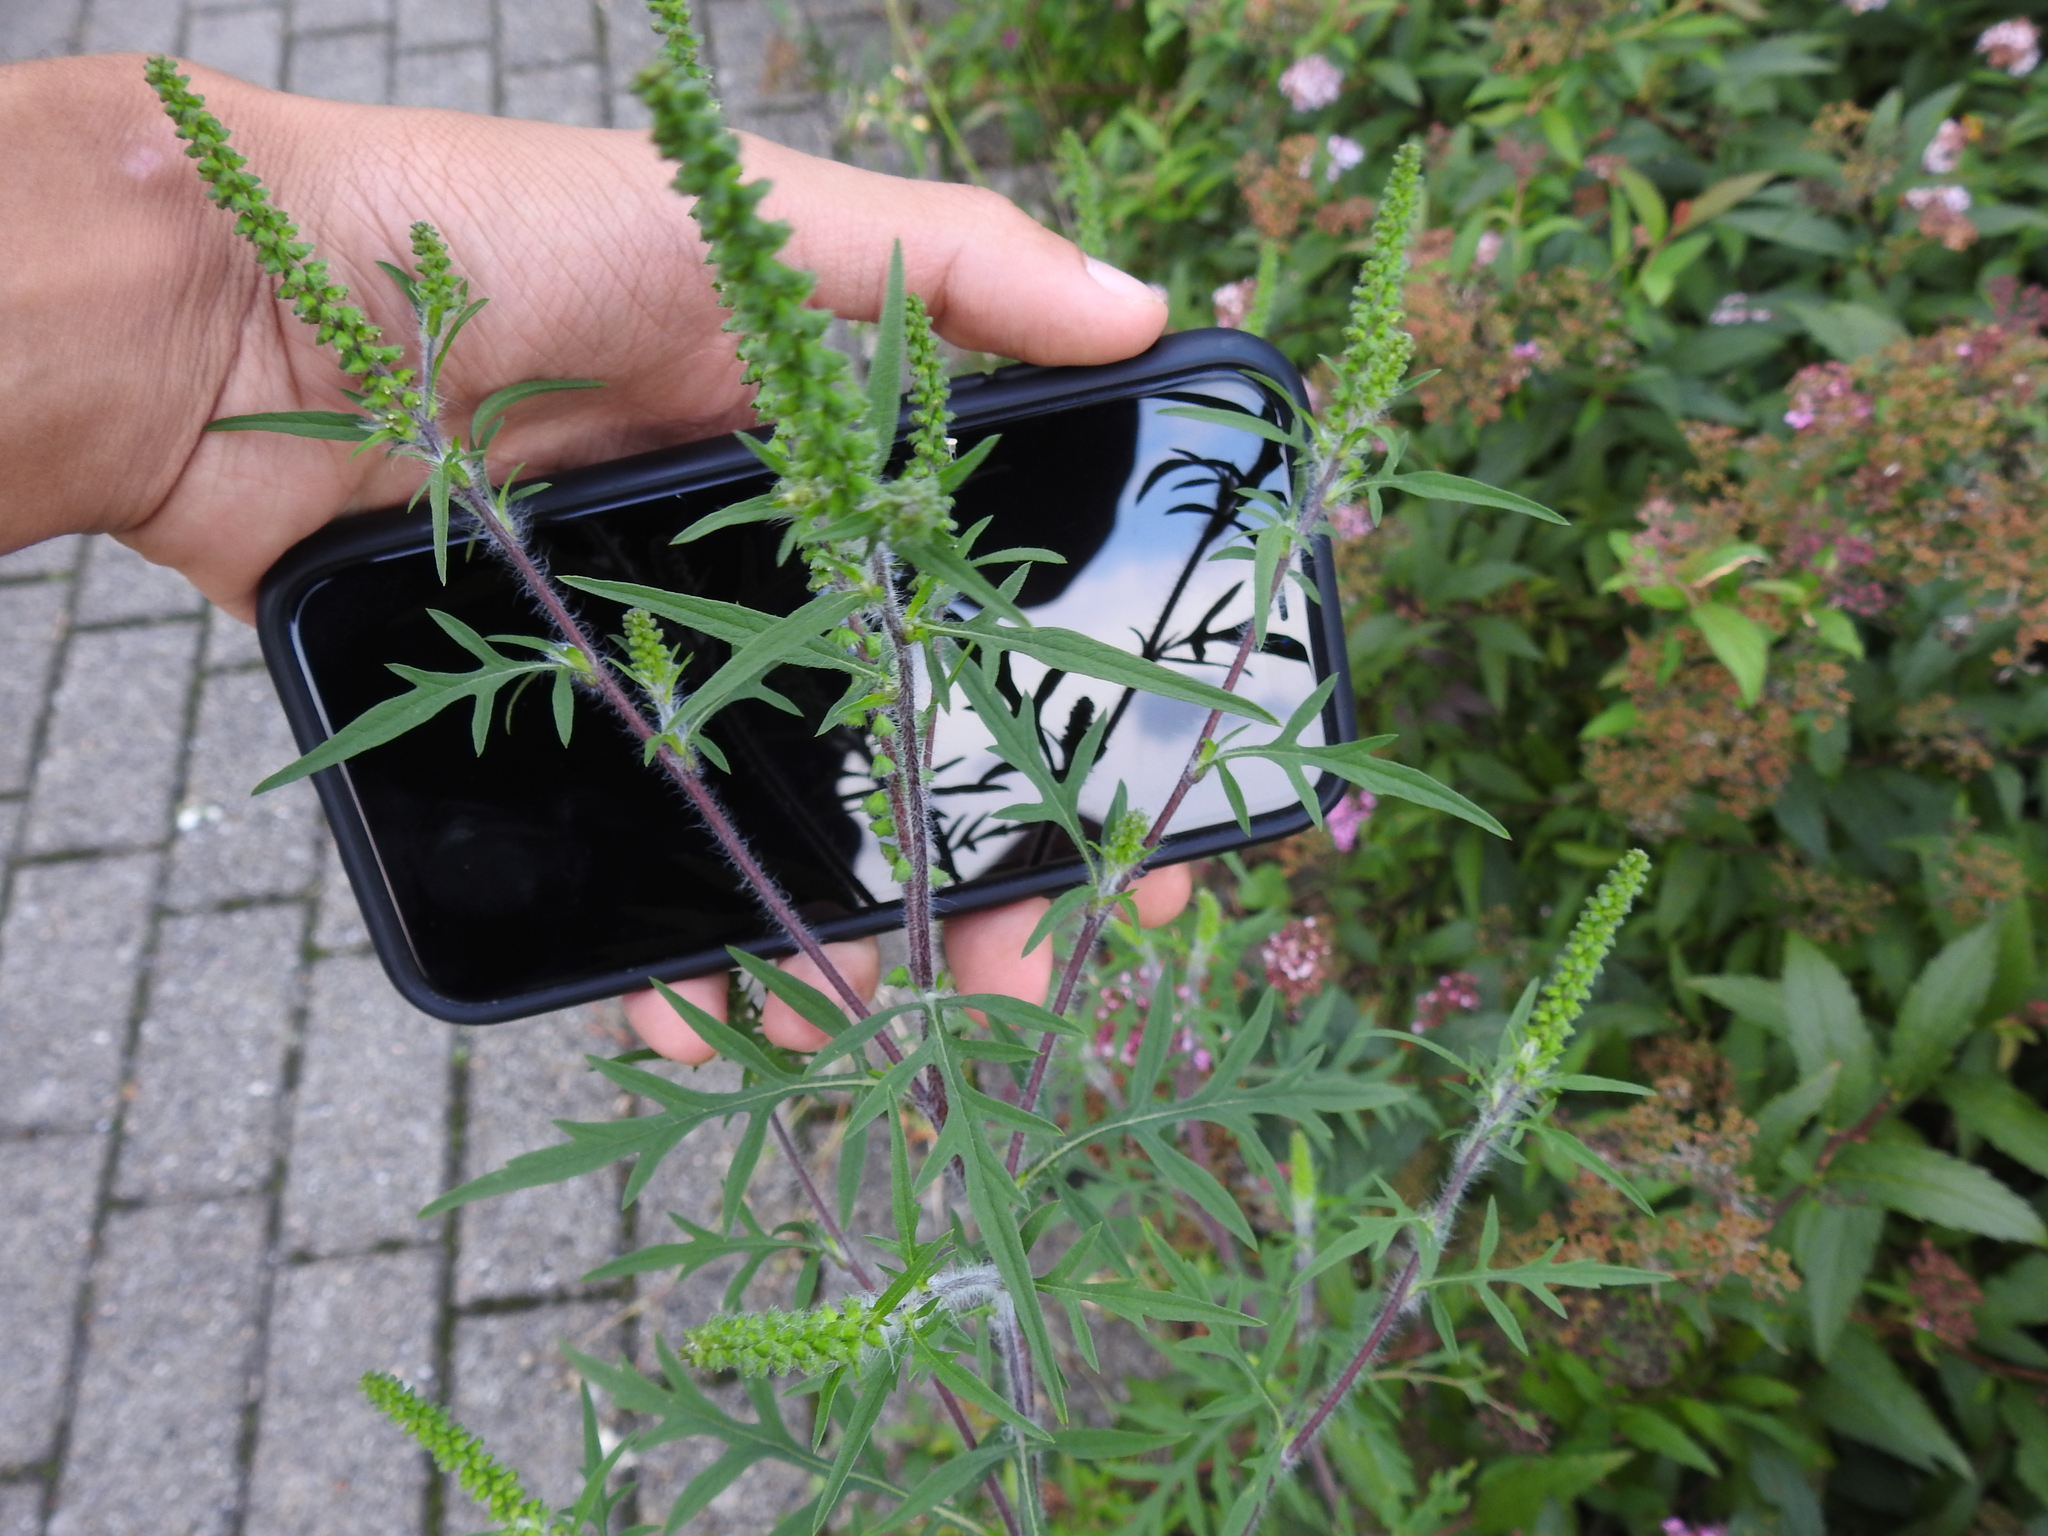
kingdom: Plantae
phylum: Tracheophyta
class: Magnoliopsida
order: Asterales
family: Asteraceae
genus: Ambrosia
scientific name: Ambrosia artemisiifolia
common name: Annual ragweed
